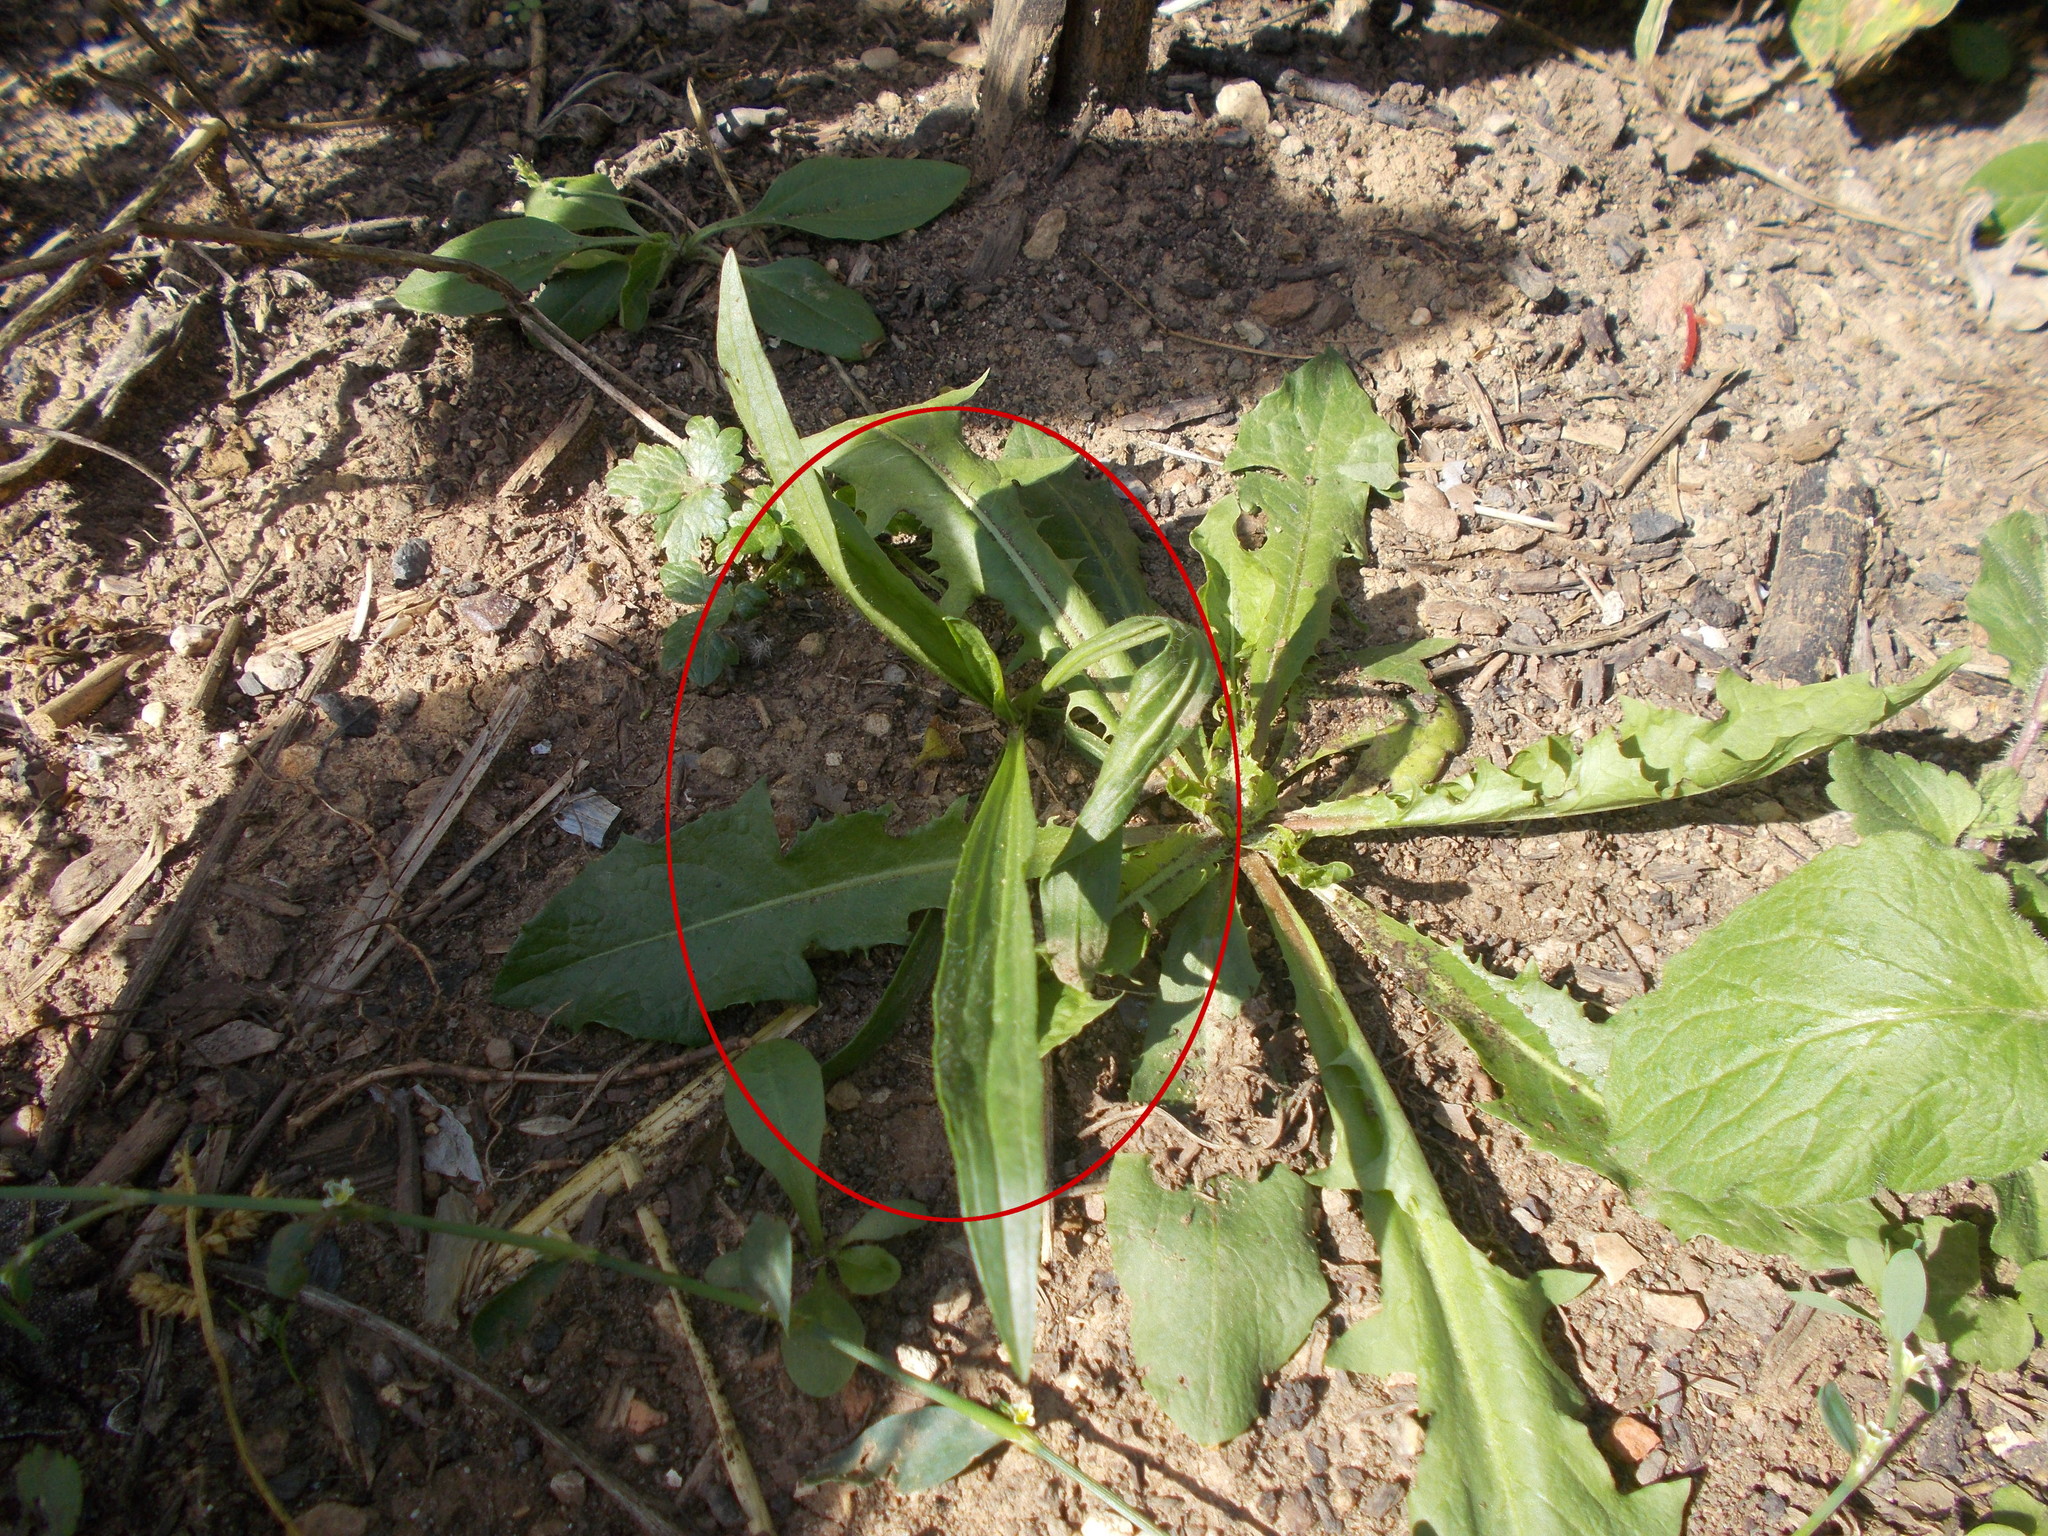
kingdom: Plantae
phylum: Tracheophyta
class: Magnoliopsida
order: Lamiales
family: Plantaginaceae
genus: Plantago
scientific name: Plantago lanceolata
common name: Ribwort plantain
